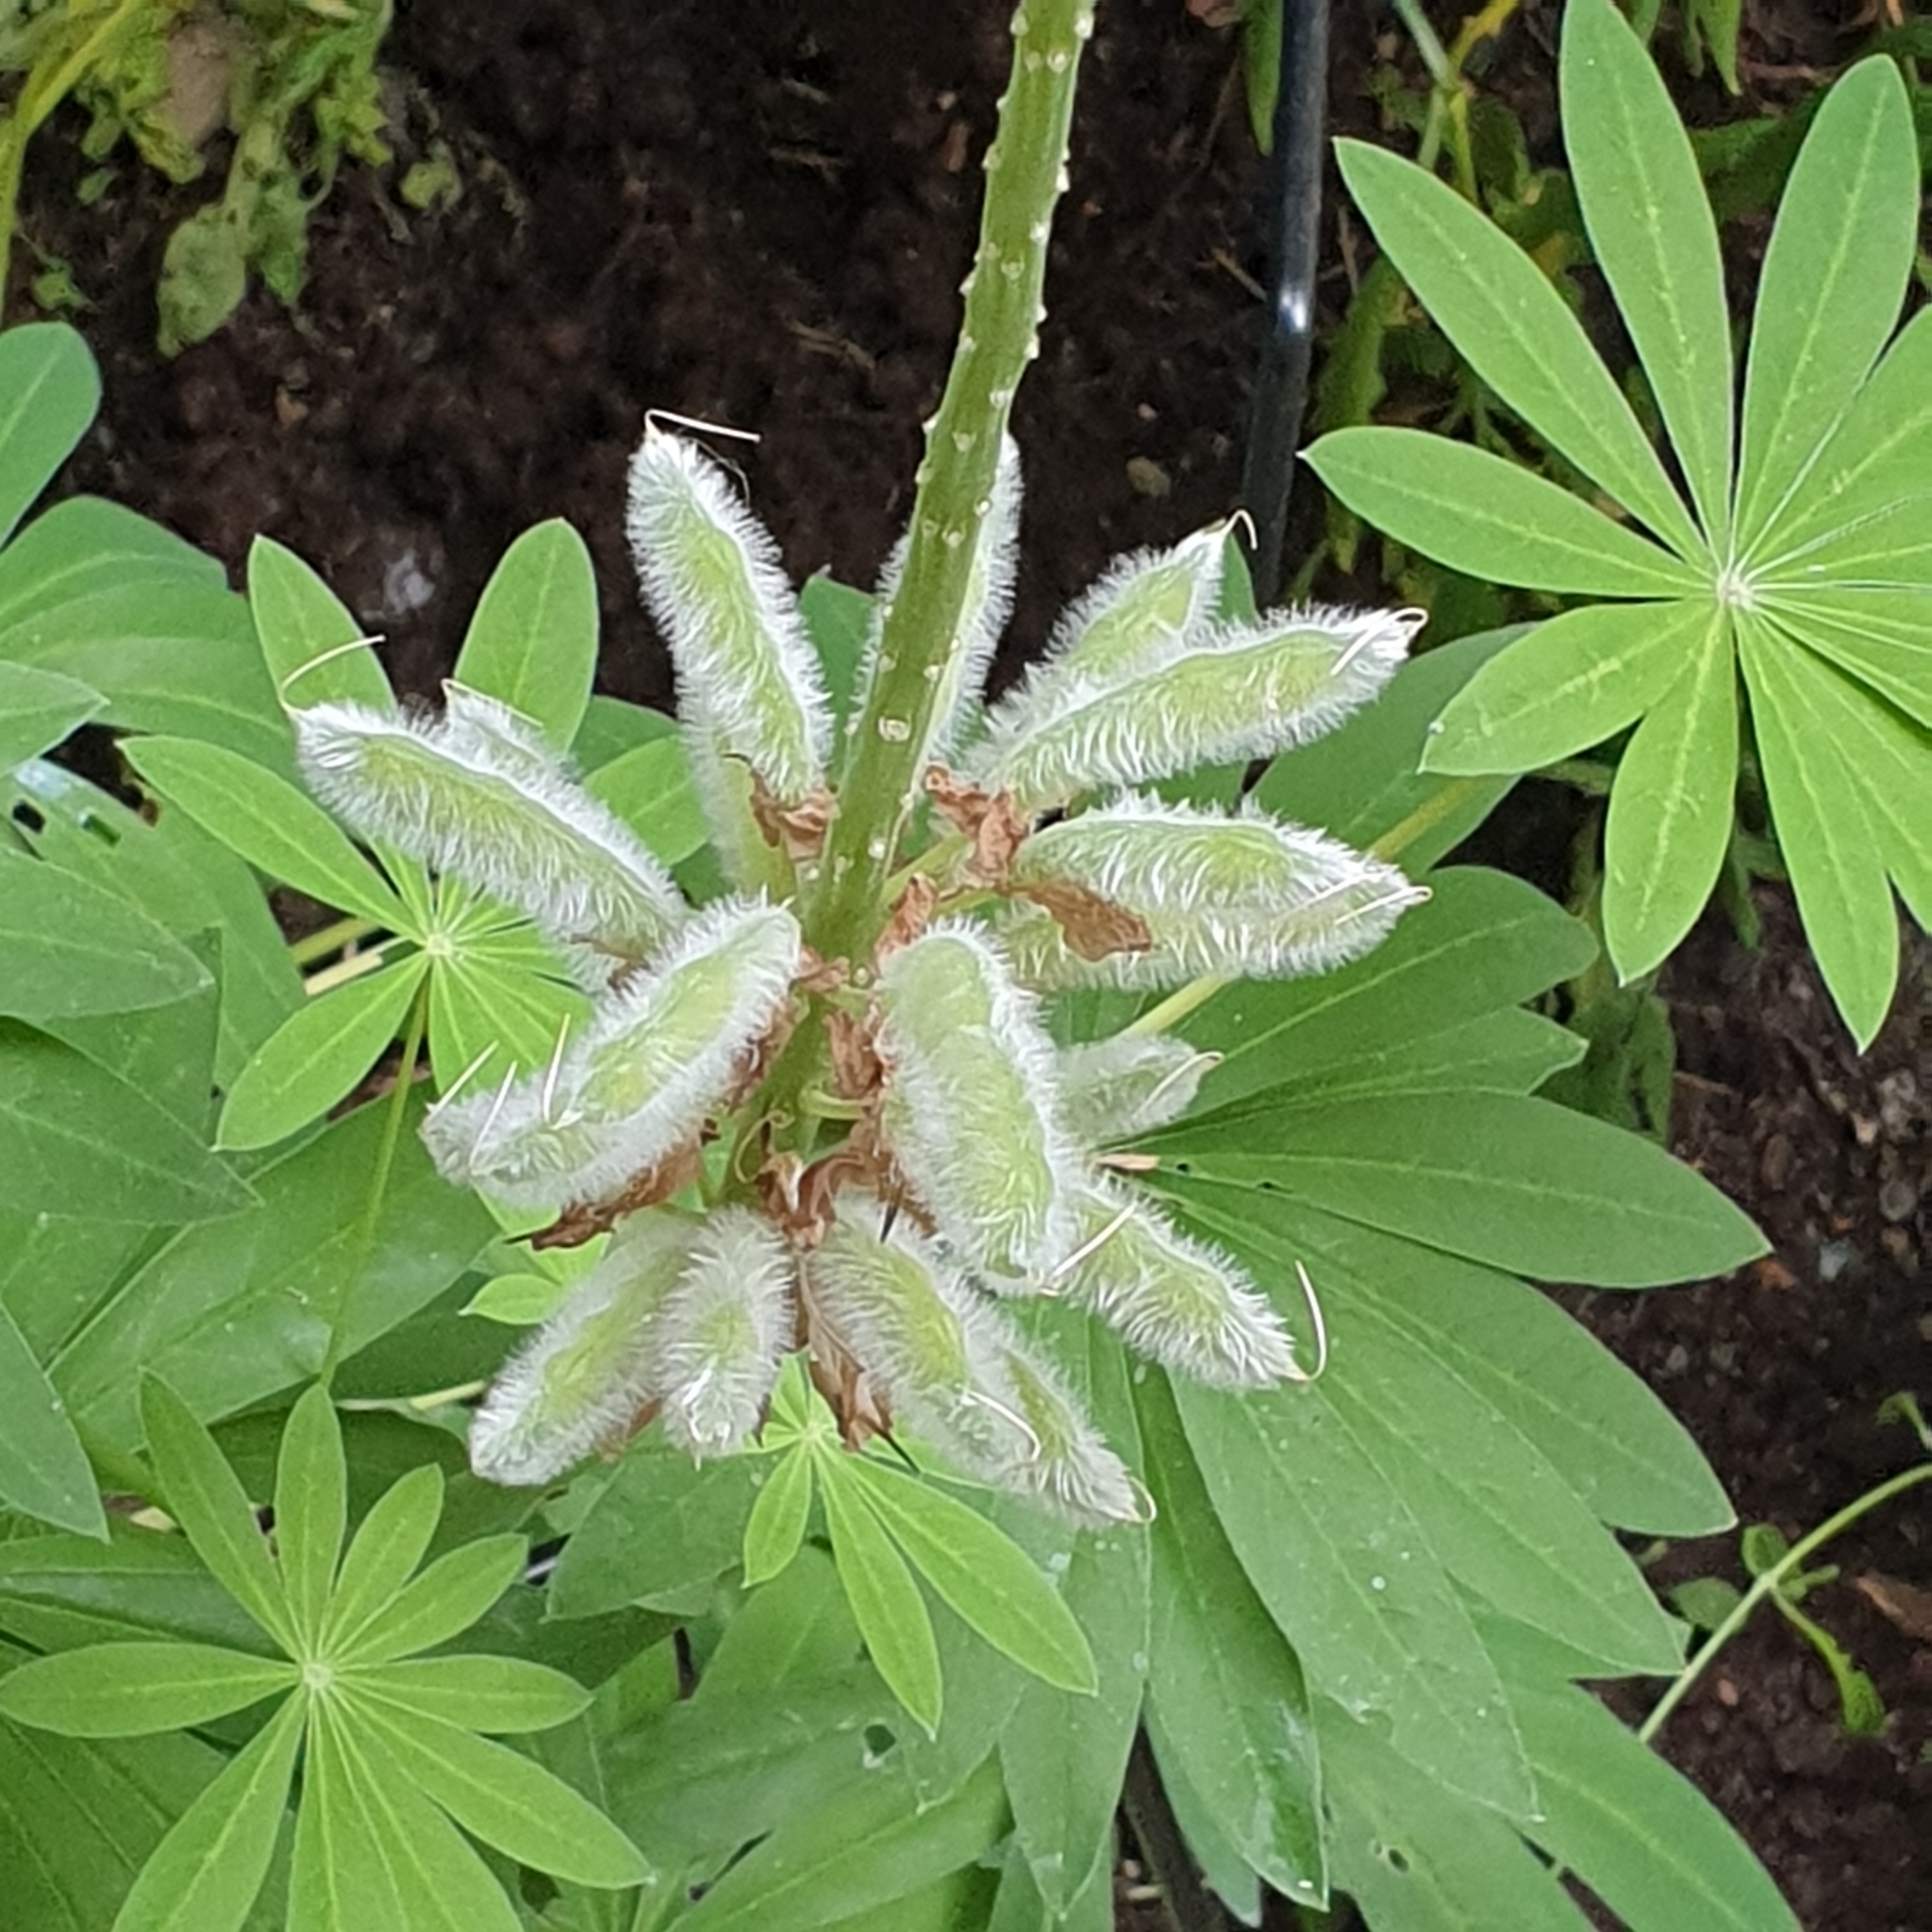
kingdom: Plantae
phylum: Tracheophyta
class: Magnoliopsida
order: Fabales
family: Fabaceae
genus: Lupinus
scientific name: Lupinus polyphyllus
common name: Garden lupin
